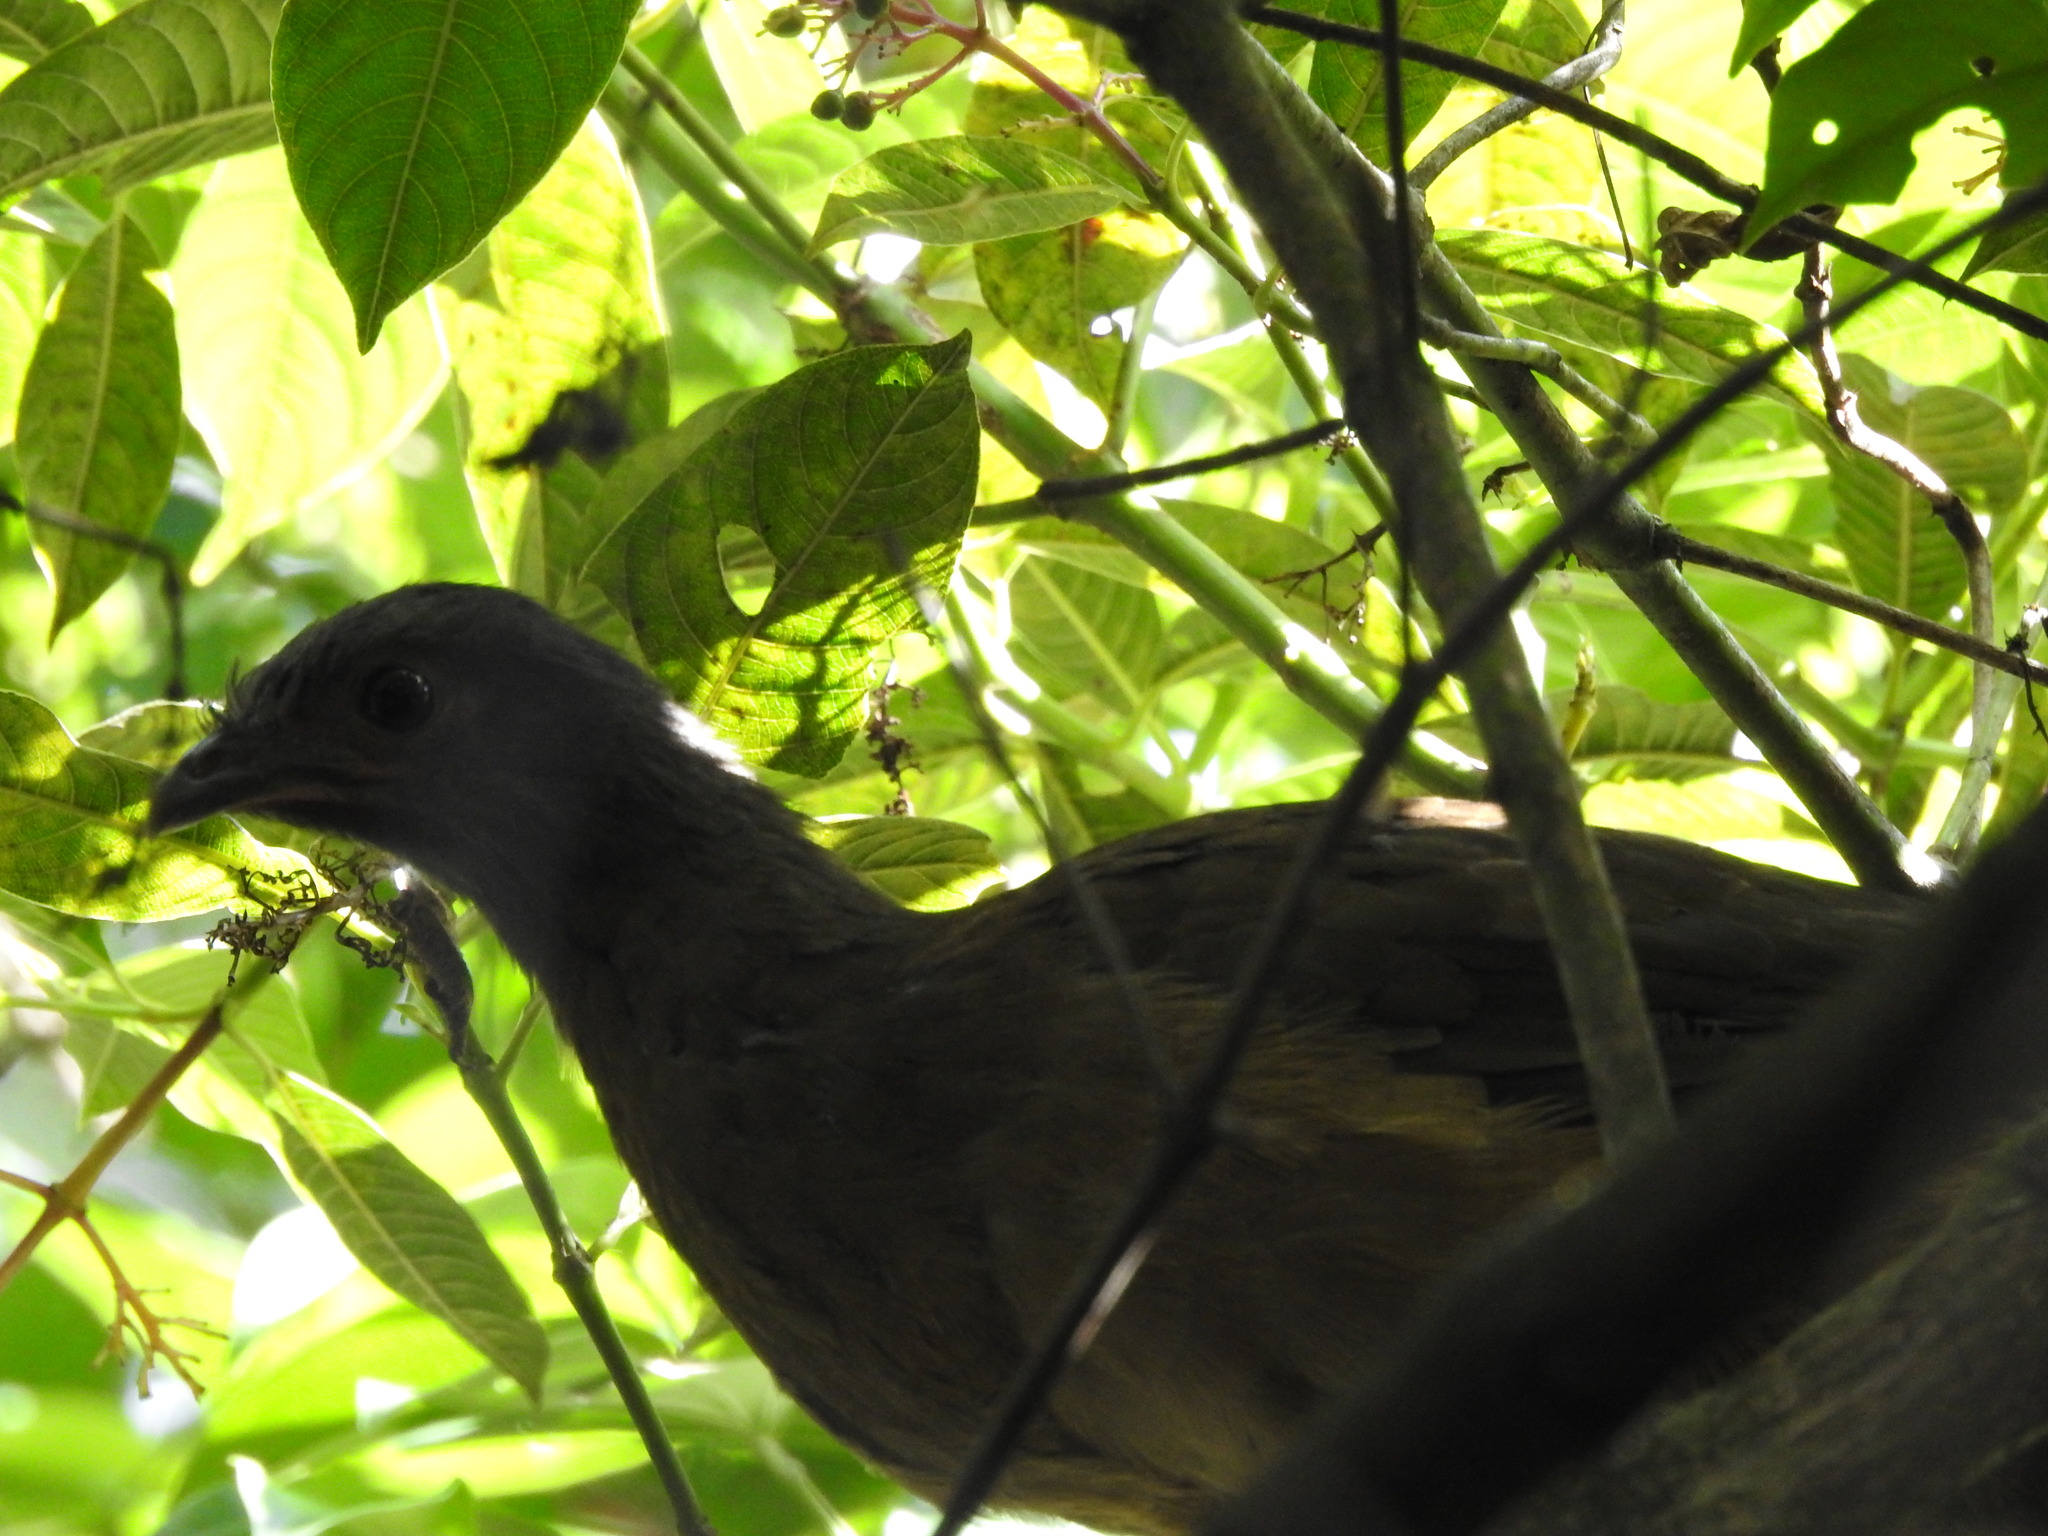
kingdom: Animalia
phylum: Chordata
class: Aves
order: Galliformes
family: Cracidae
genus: Ortalis
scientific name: Ortalis vetula
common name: Plain chachalaca
